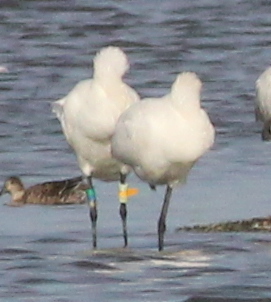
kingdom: Animalia
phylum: Chordata
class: Aves
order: Pelecaniformes
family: Threskiornithidae
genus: Platalea
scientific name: Platalea leucorodia
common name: Eurasian spoonbill
